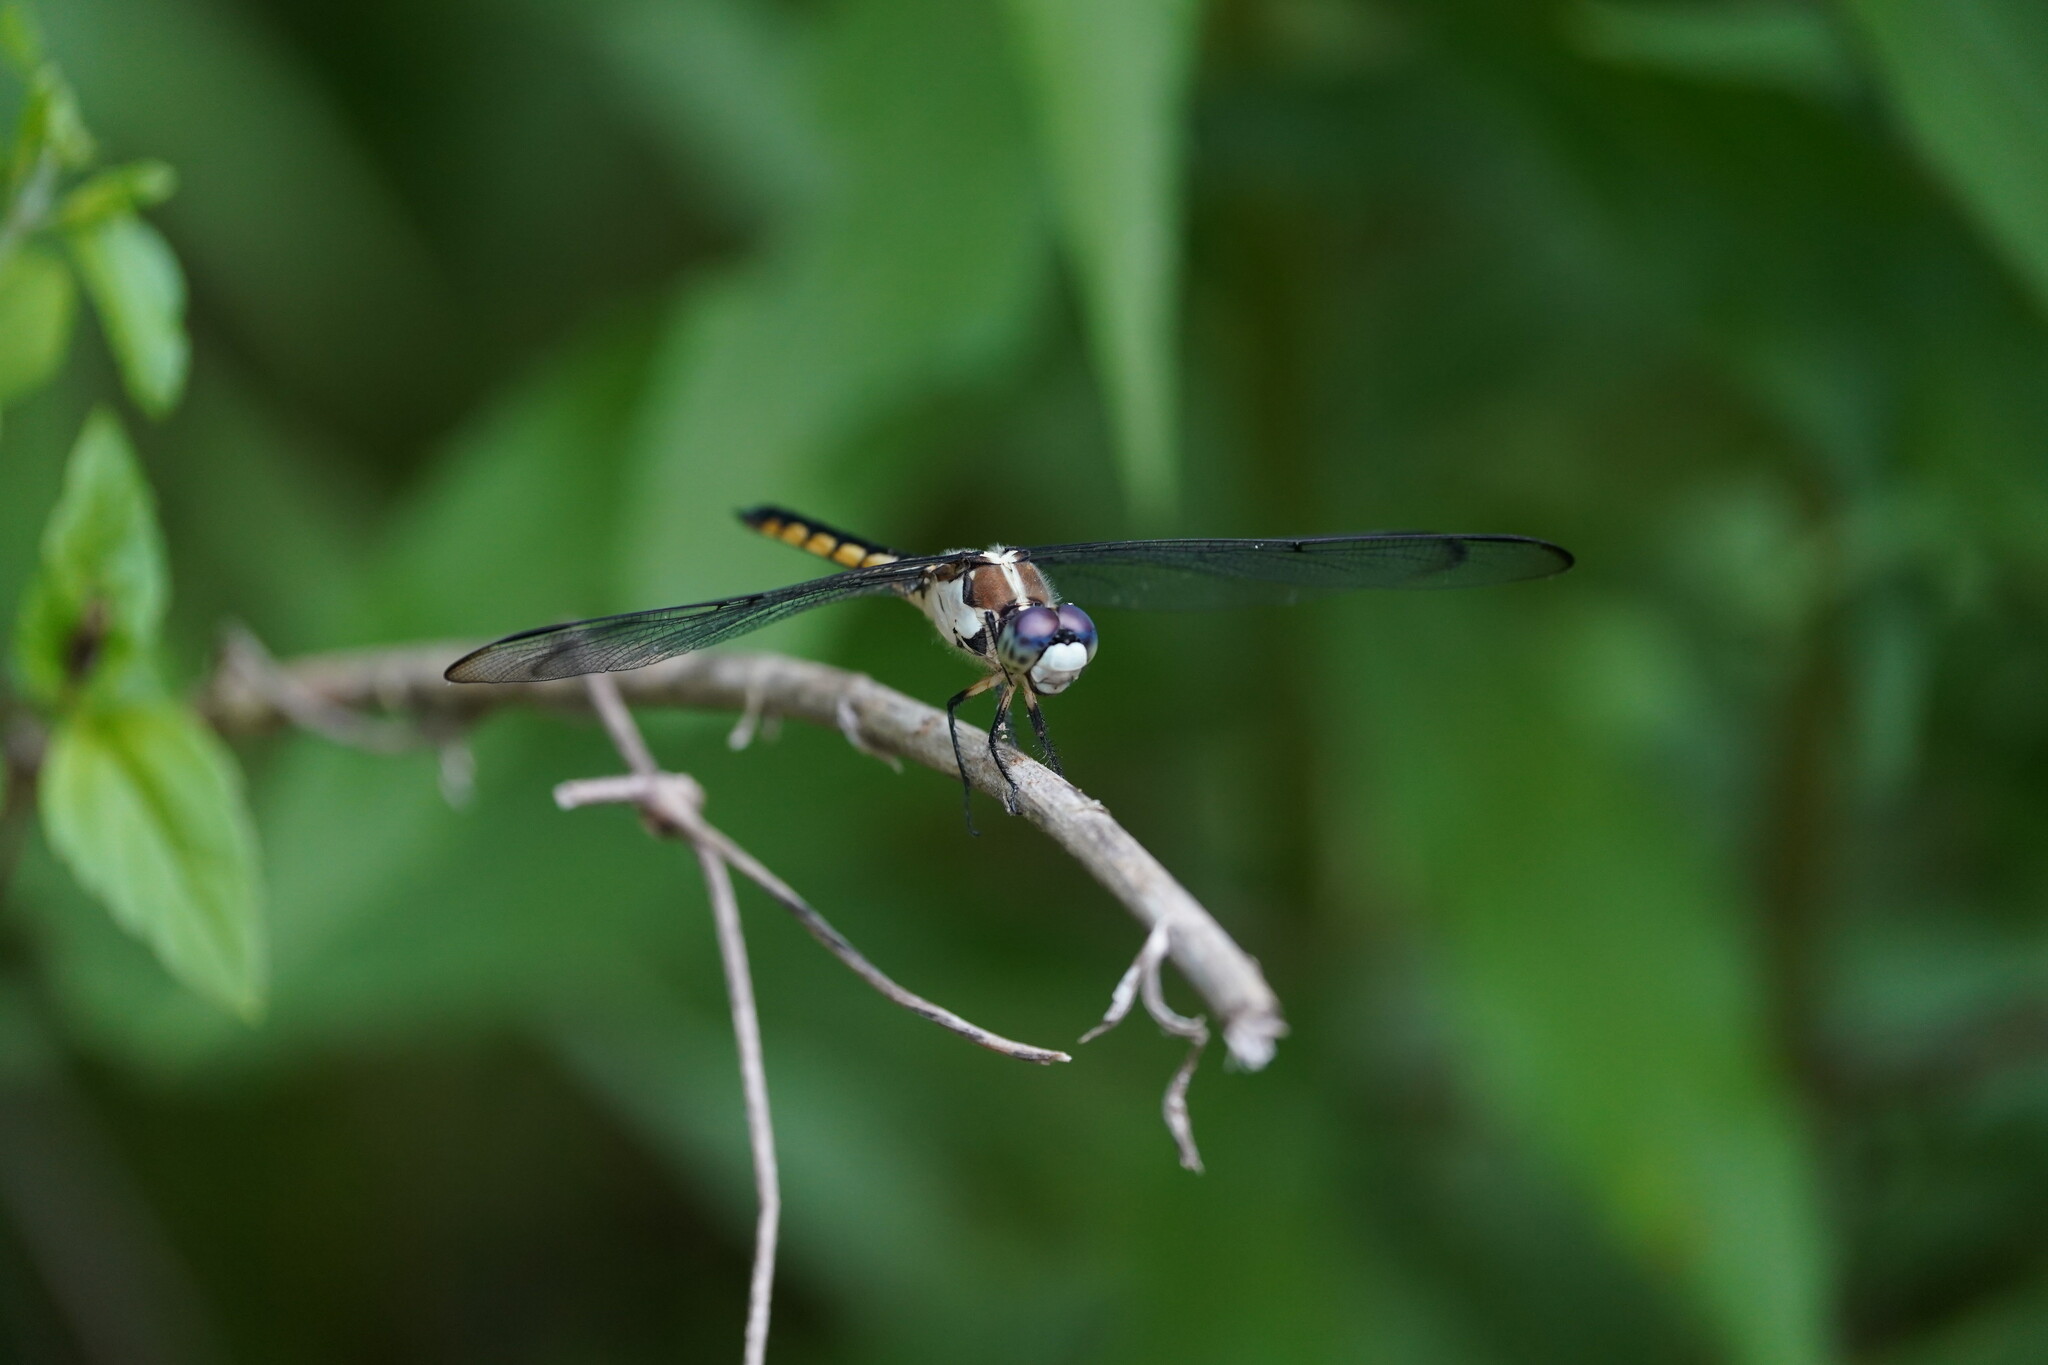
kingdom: Animalia
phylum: Arthropoda
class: Insecta
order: Odonata
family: Libellulidae
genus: Libellula
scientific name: Libellula vibrans
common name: Great blue skimmer
